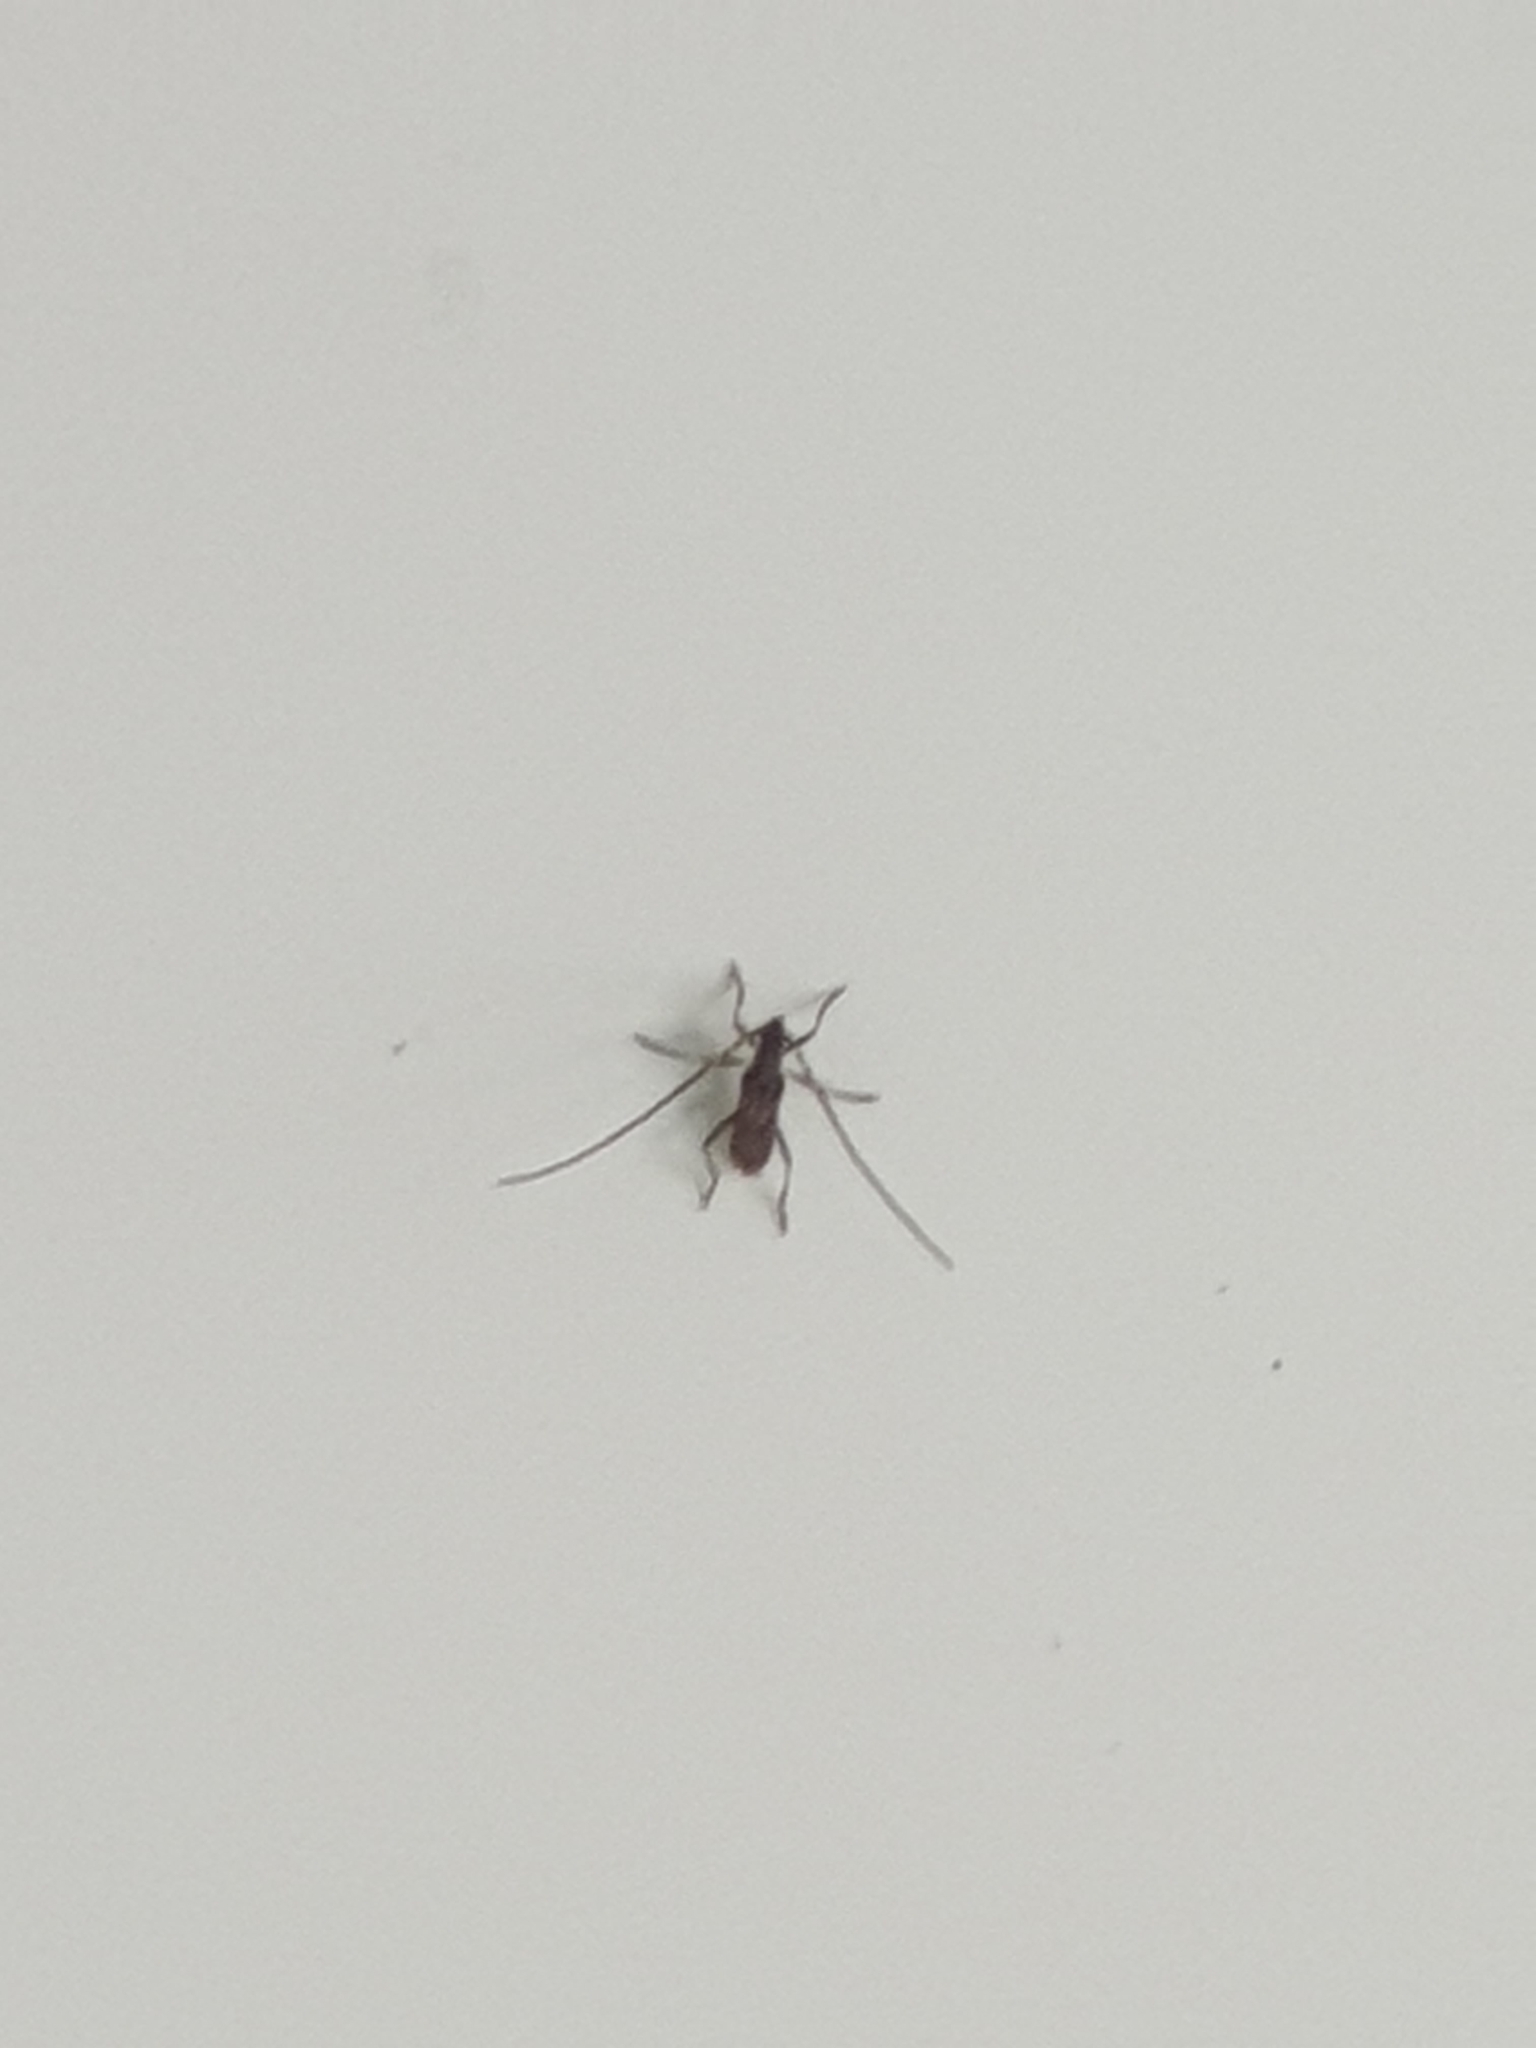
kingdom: Animalia
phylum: Arthropoda
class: Insecta
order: Coleoptera
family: Cerambycidae
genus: Didymocantha
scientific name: Didymocantha obliqua
